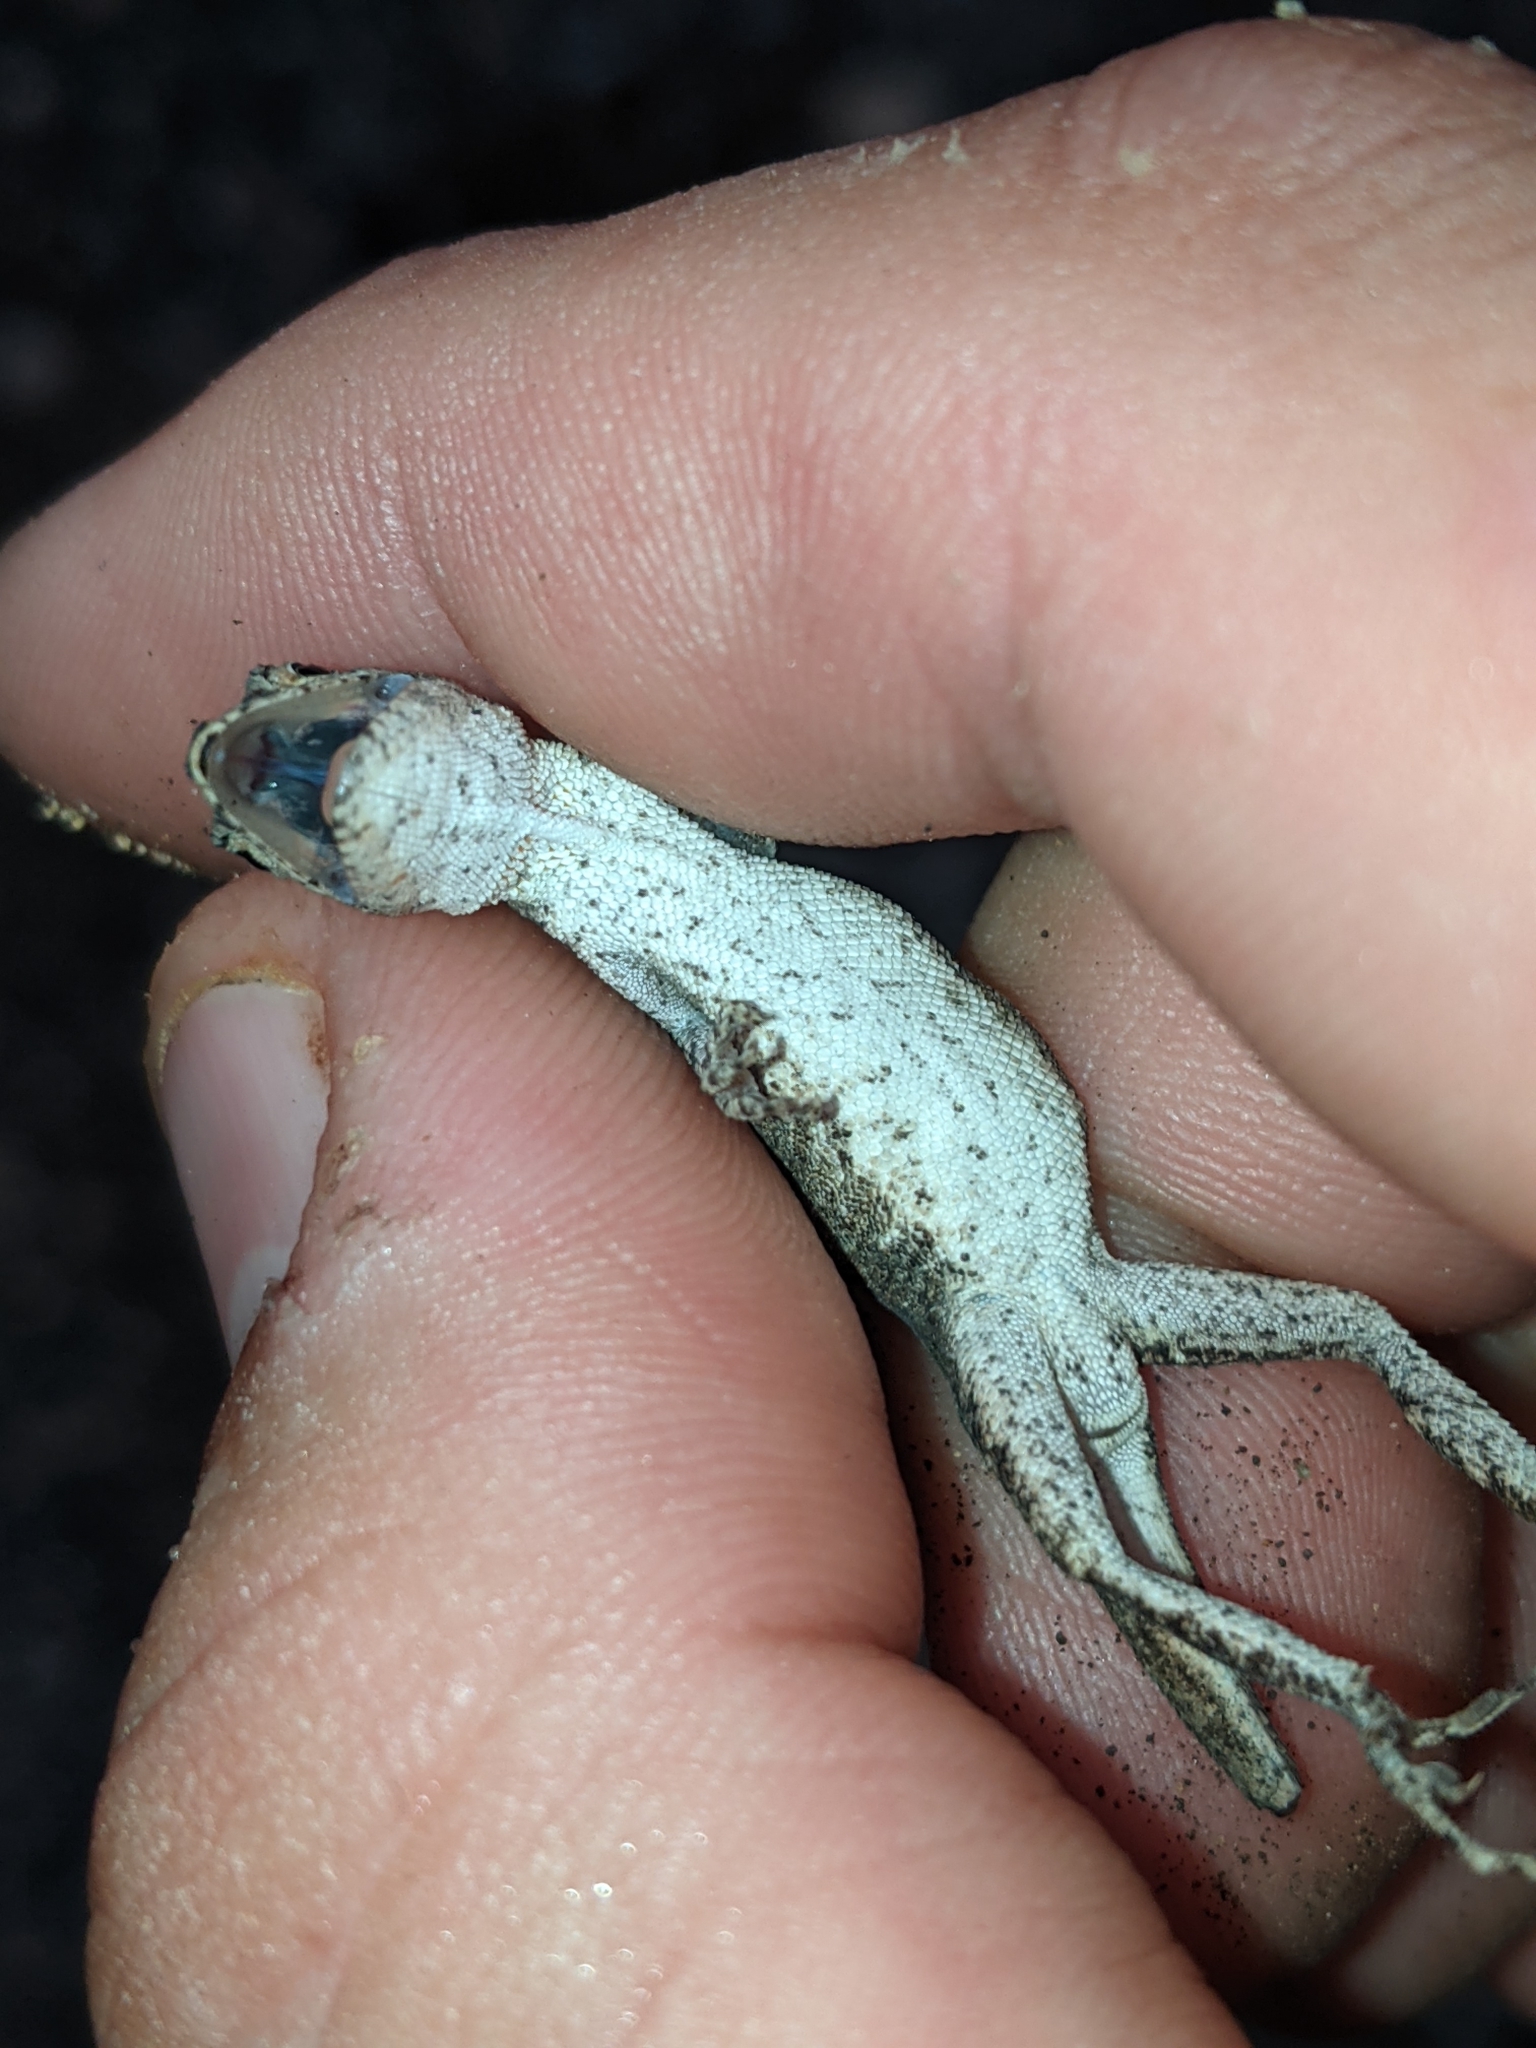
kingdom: Animalia
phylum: Chordata
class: Squamata
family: Dactyloidae
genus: Anolis
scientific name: Anolis nebulosus
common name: Clouded anole
